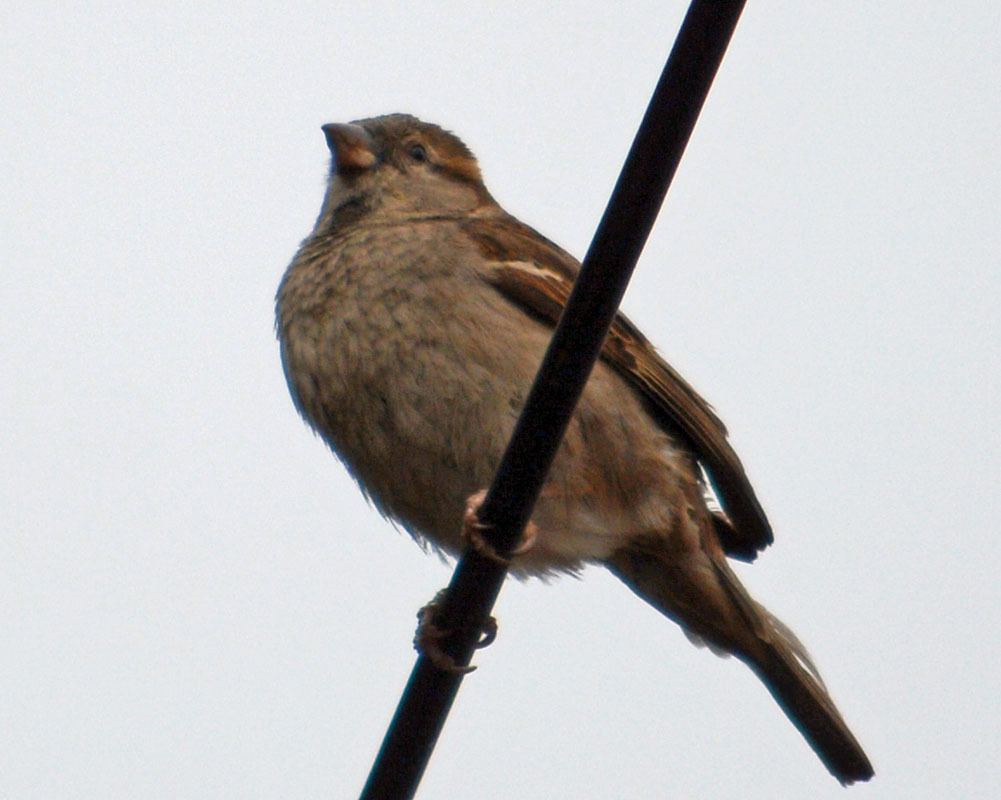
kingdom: Animalia
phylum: Chordata
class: Aves
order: Passeriformes
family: Passeridae
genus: Passer
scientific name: Passer domesticus
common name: House sparrow
